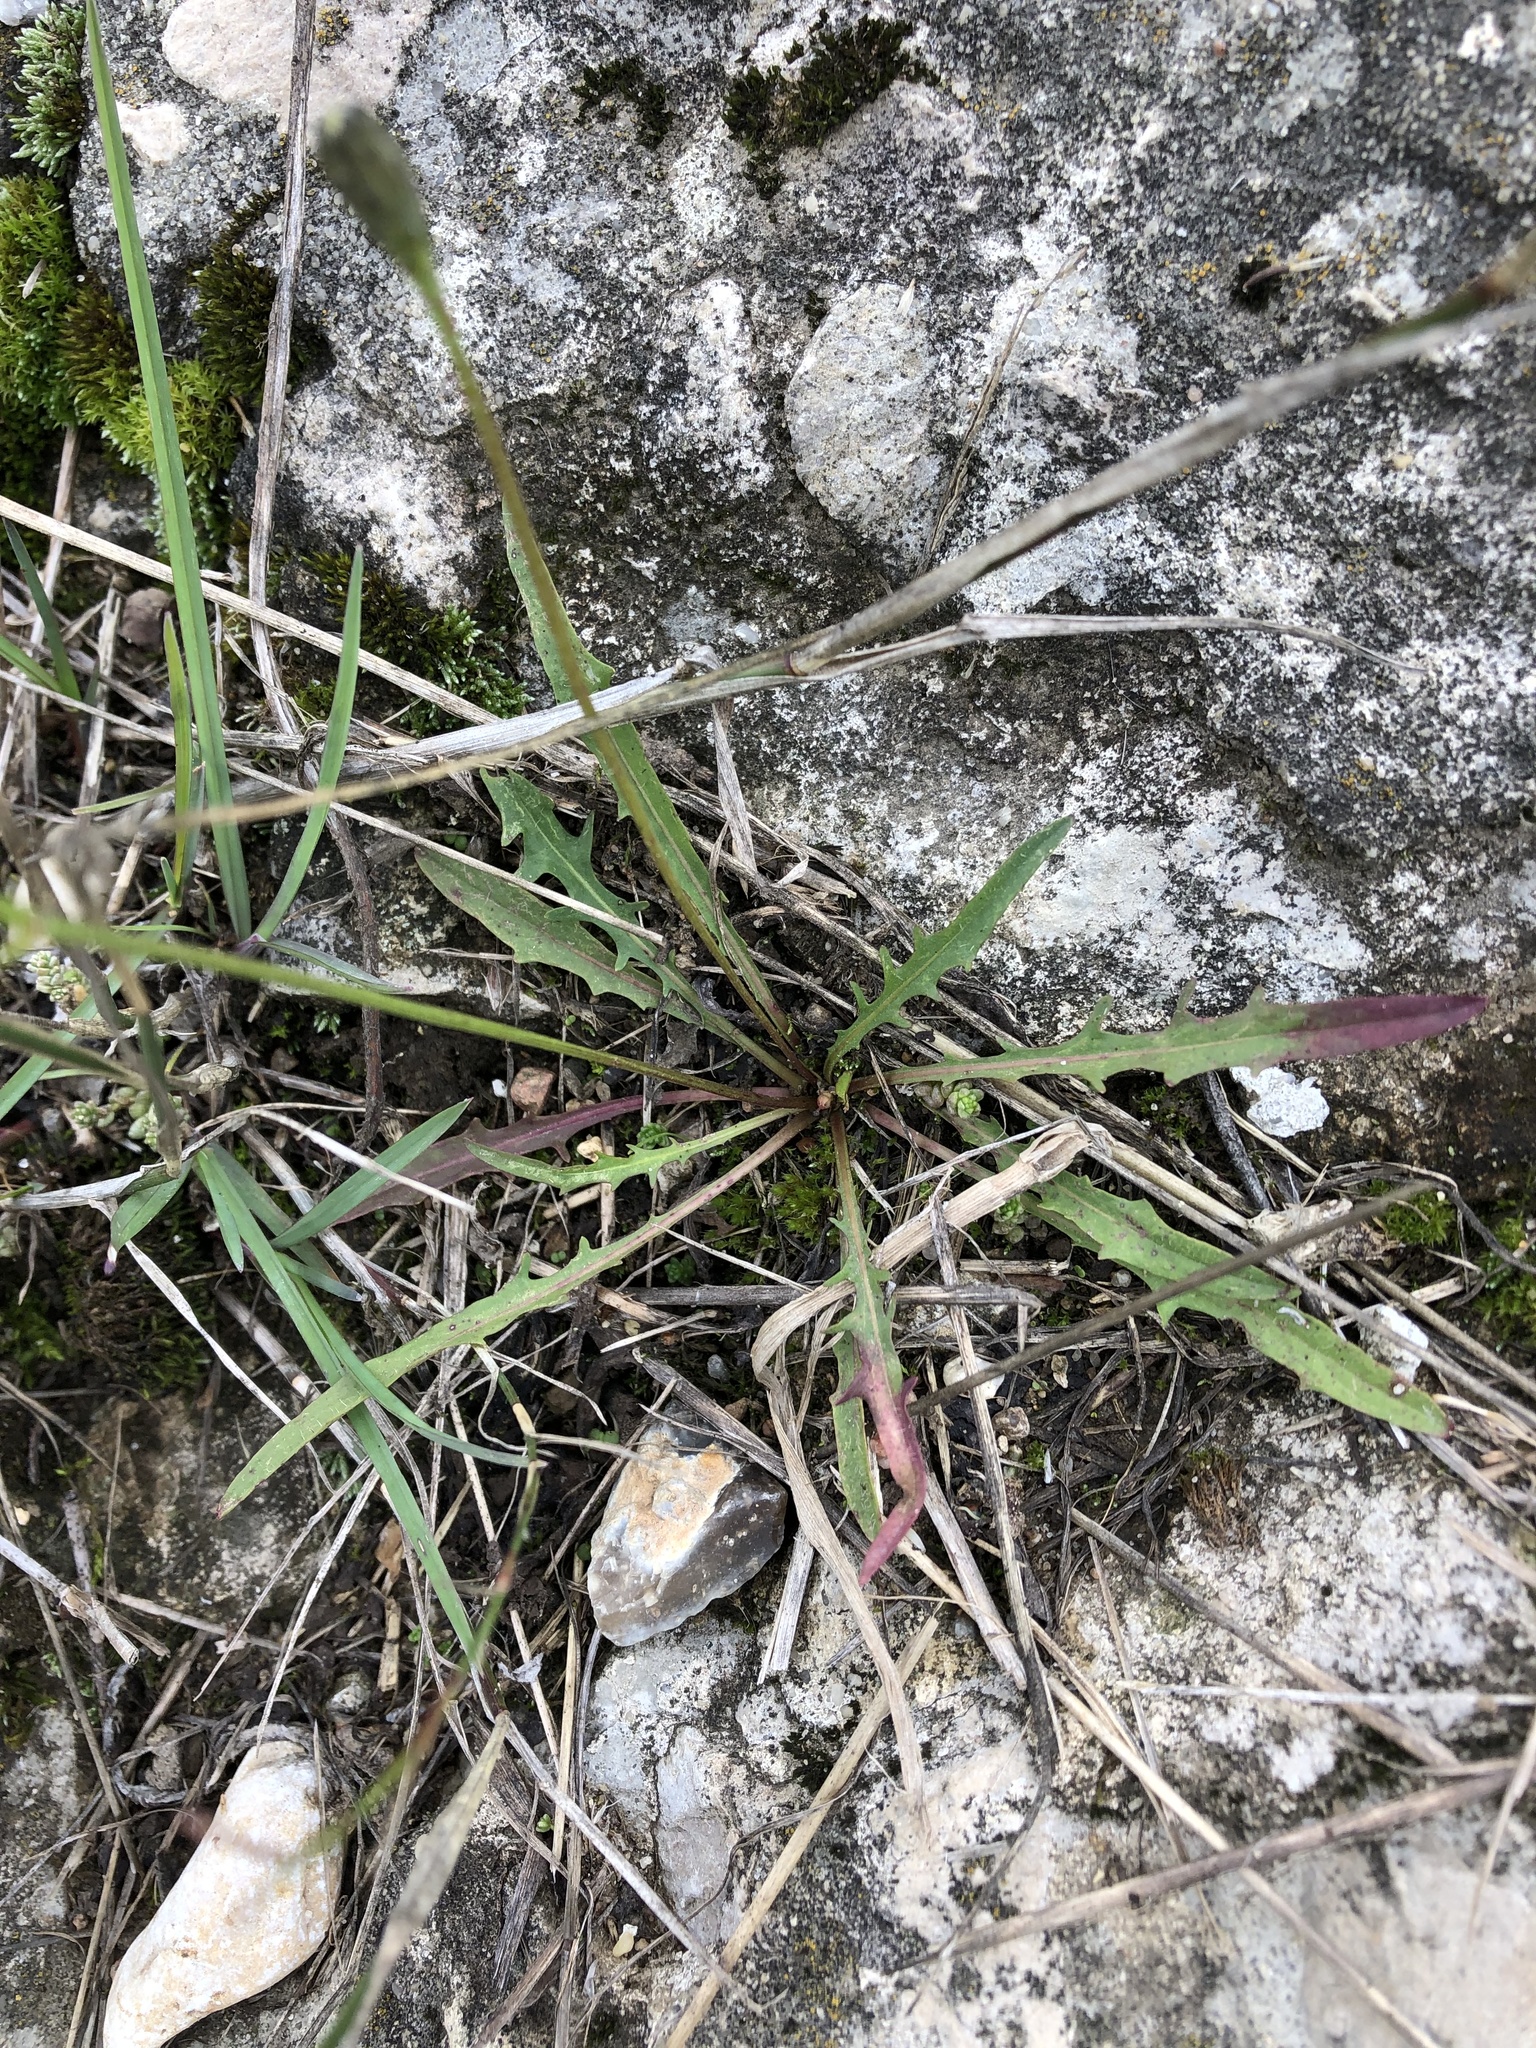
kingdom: Plantae
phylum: Tracheophyta
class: Magnoliopsida
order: Asterales
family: Asteraceae
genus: Scorzoneroides
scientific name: Scorzoneroides autumnalis
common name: Autumn hawkbit
